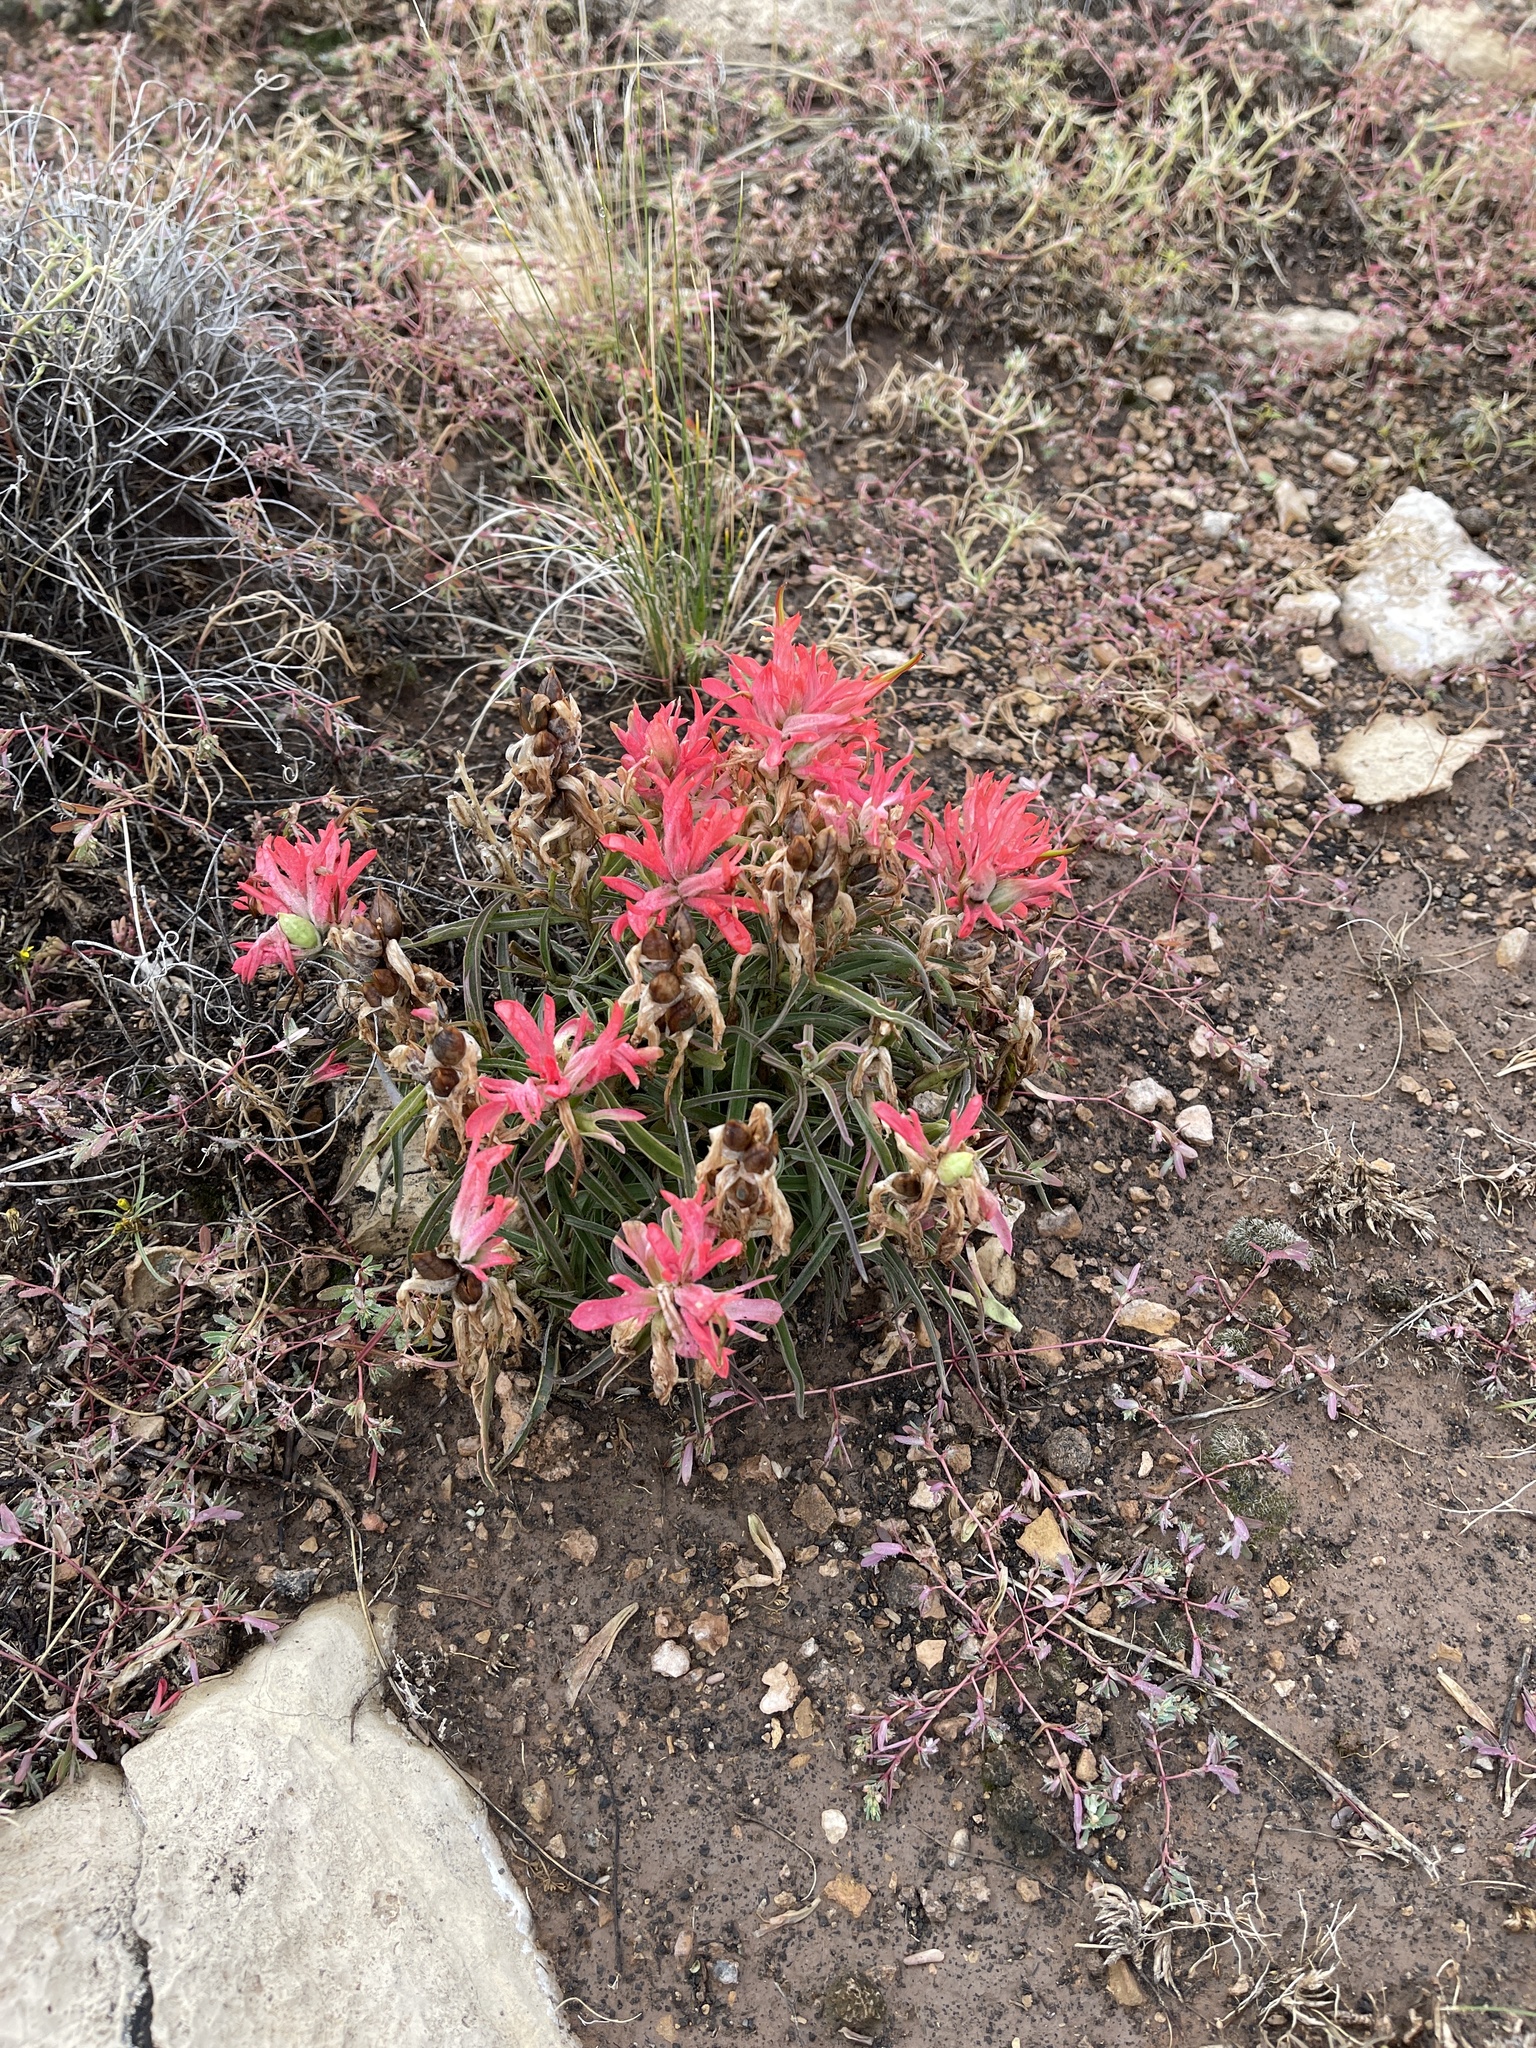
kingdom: Plantae
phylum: Tracheophyta
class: Magnoliopsida
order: Lamiales
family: Orobanchaceae
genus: Castilleja
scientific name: Castilleja chromosa
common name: Desert paintbrush
